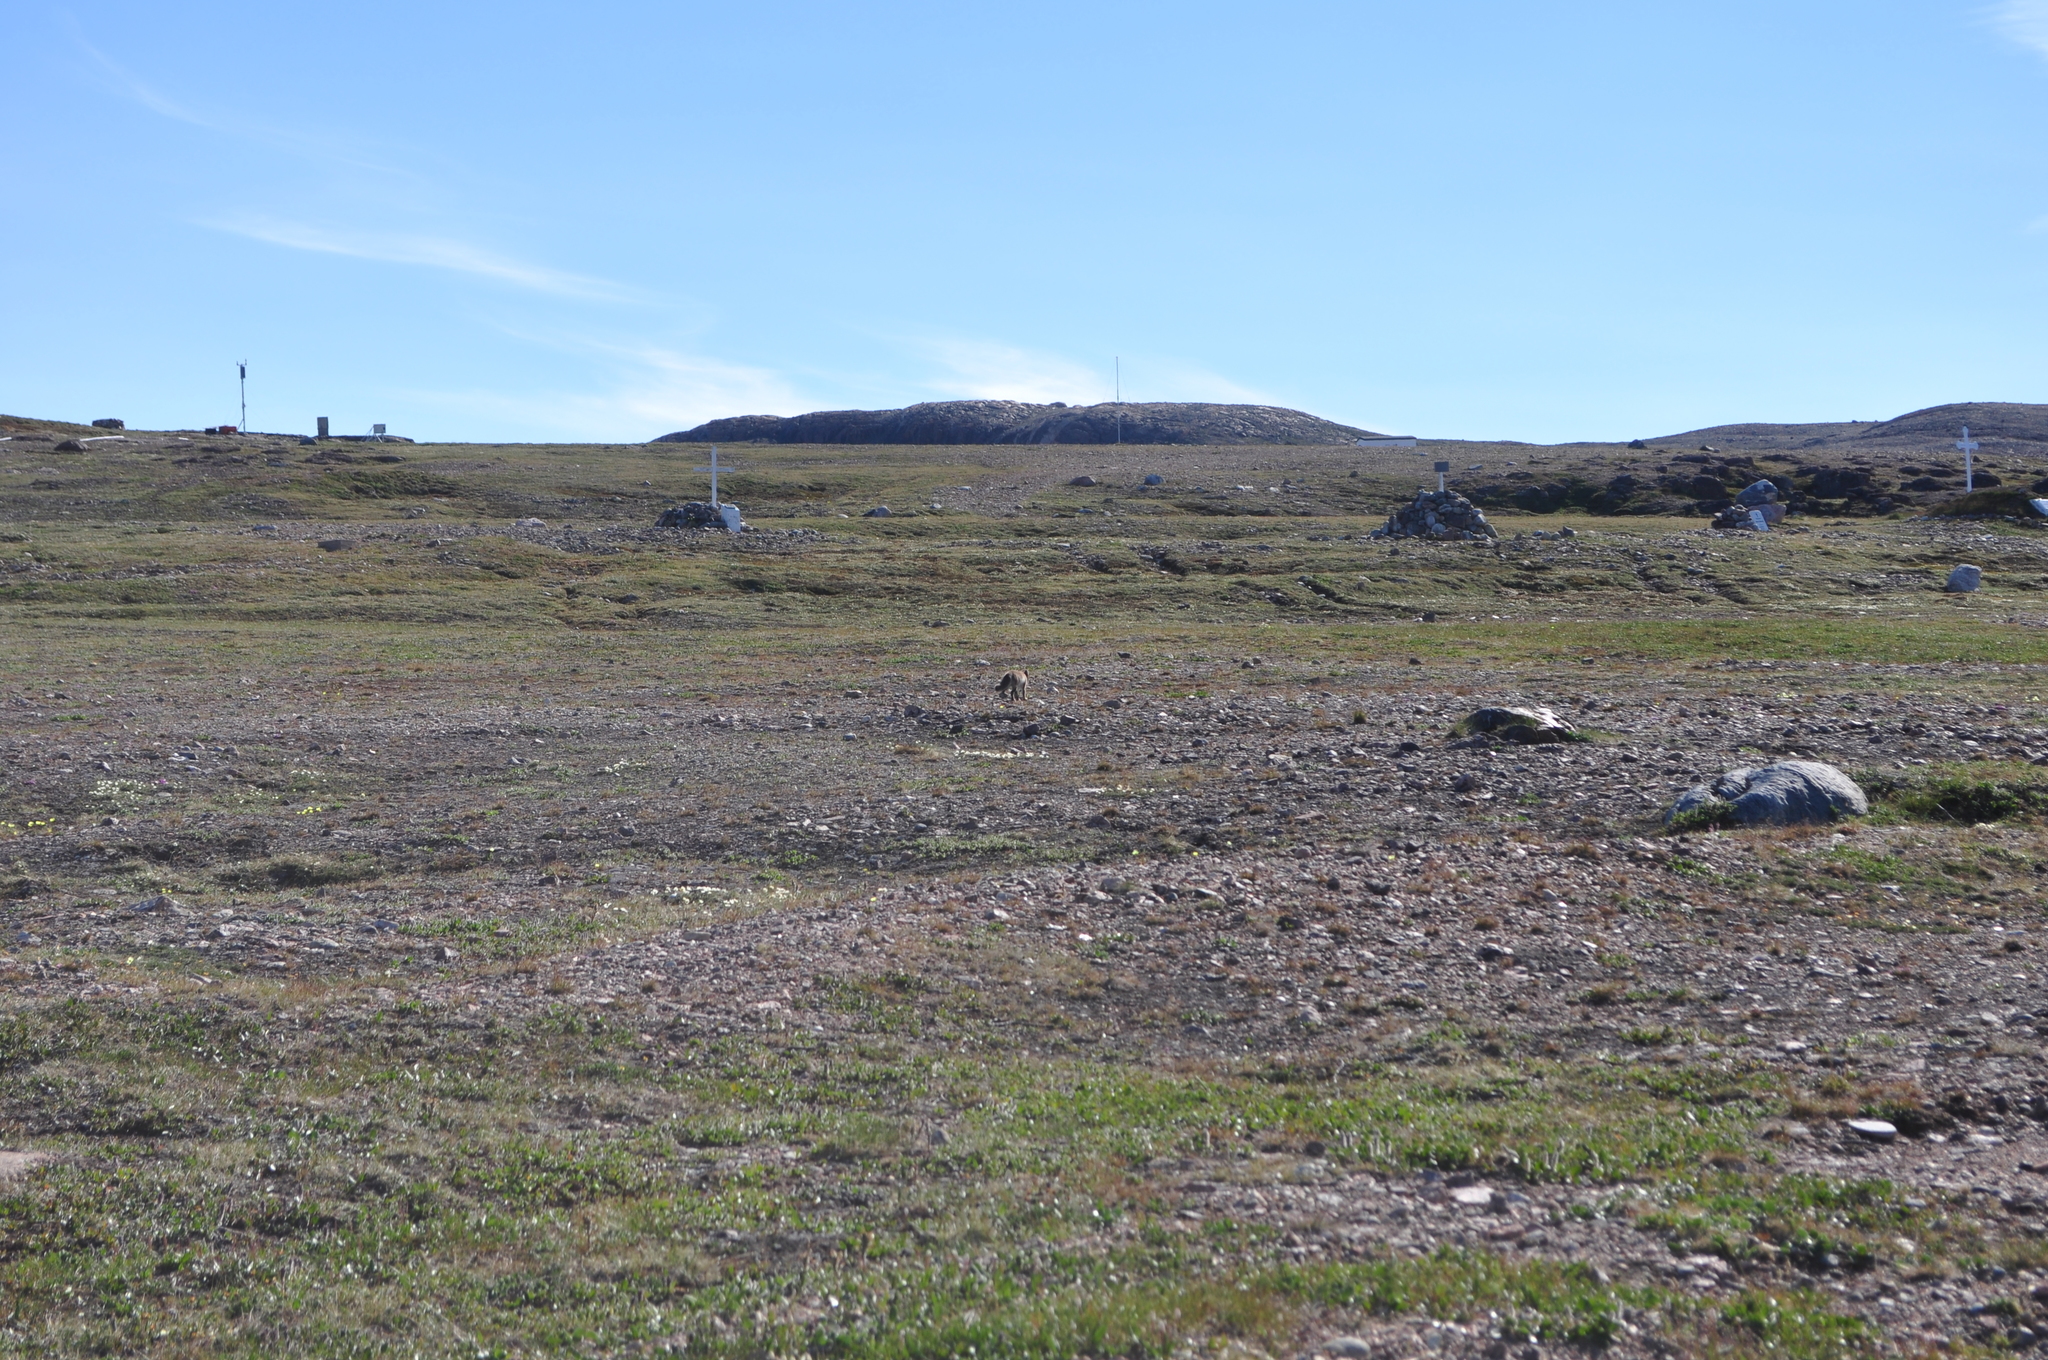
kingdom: Animalia
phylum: Chordata
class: Mammalia
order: Carnivora
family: Canidae
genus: Vulpes
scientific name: Vulpes lagopus
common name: Arctic fox
